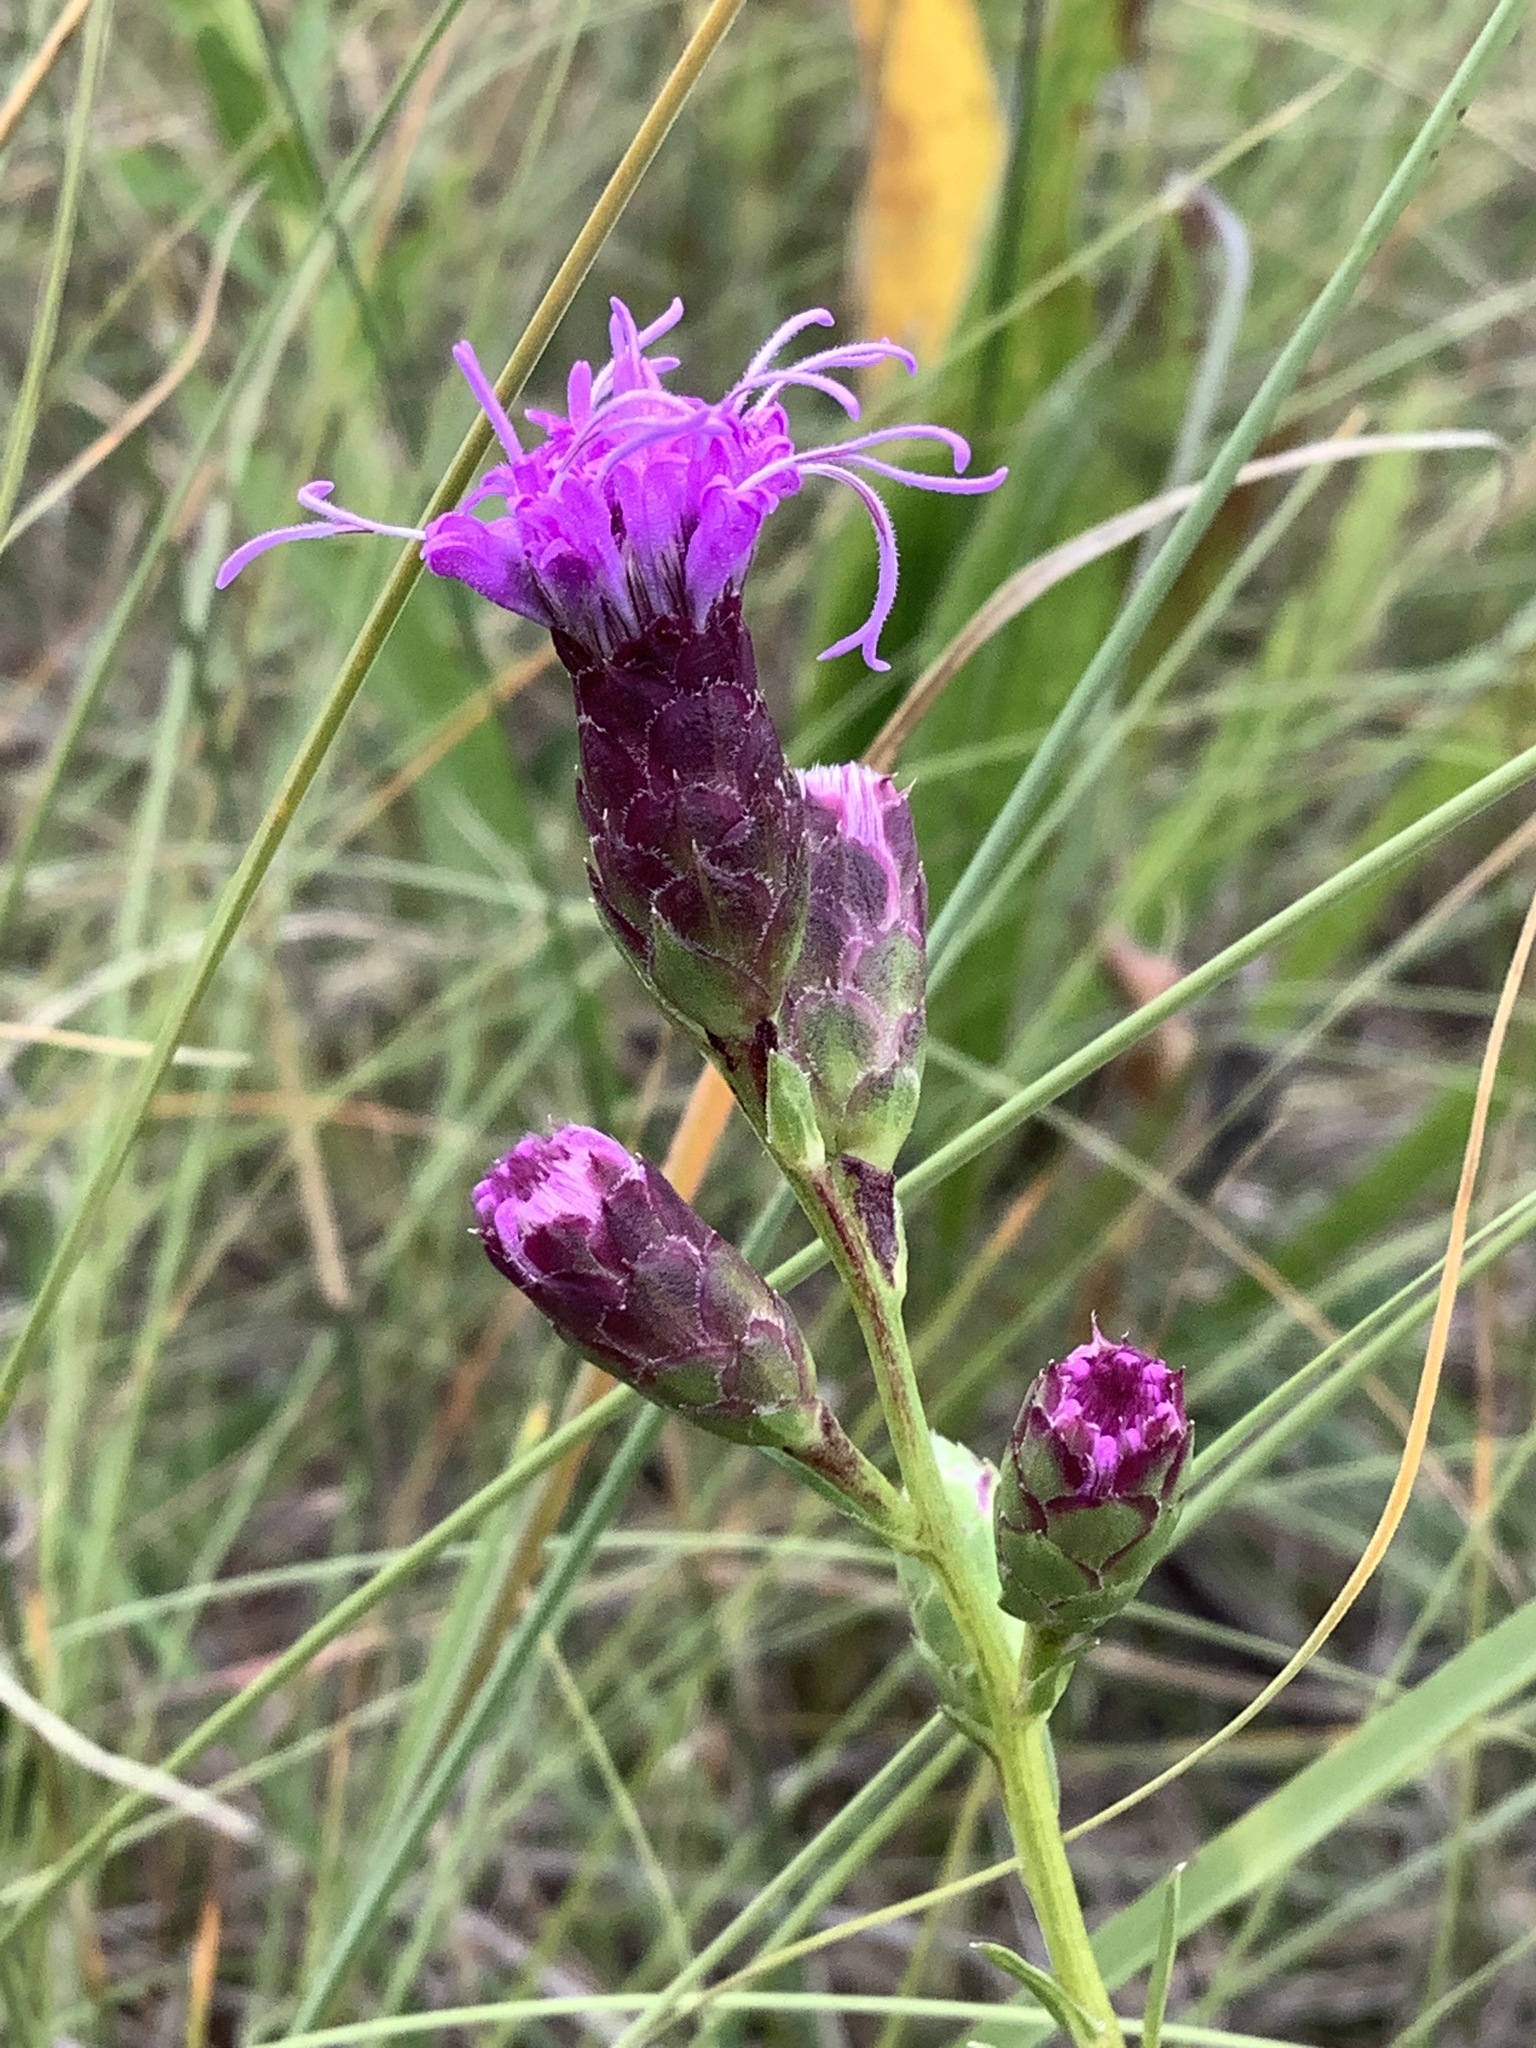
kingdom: Plantae
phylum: Tracheophyta
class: Magnoliopsida
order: Asterales
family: Asteraceae
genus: Liatris
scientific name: Liatris cylindracea
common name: Few-head blazingstar
